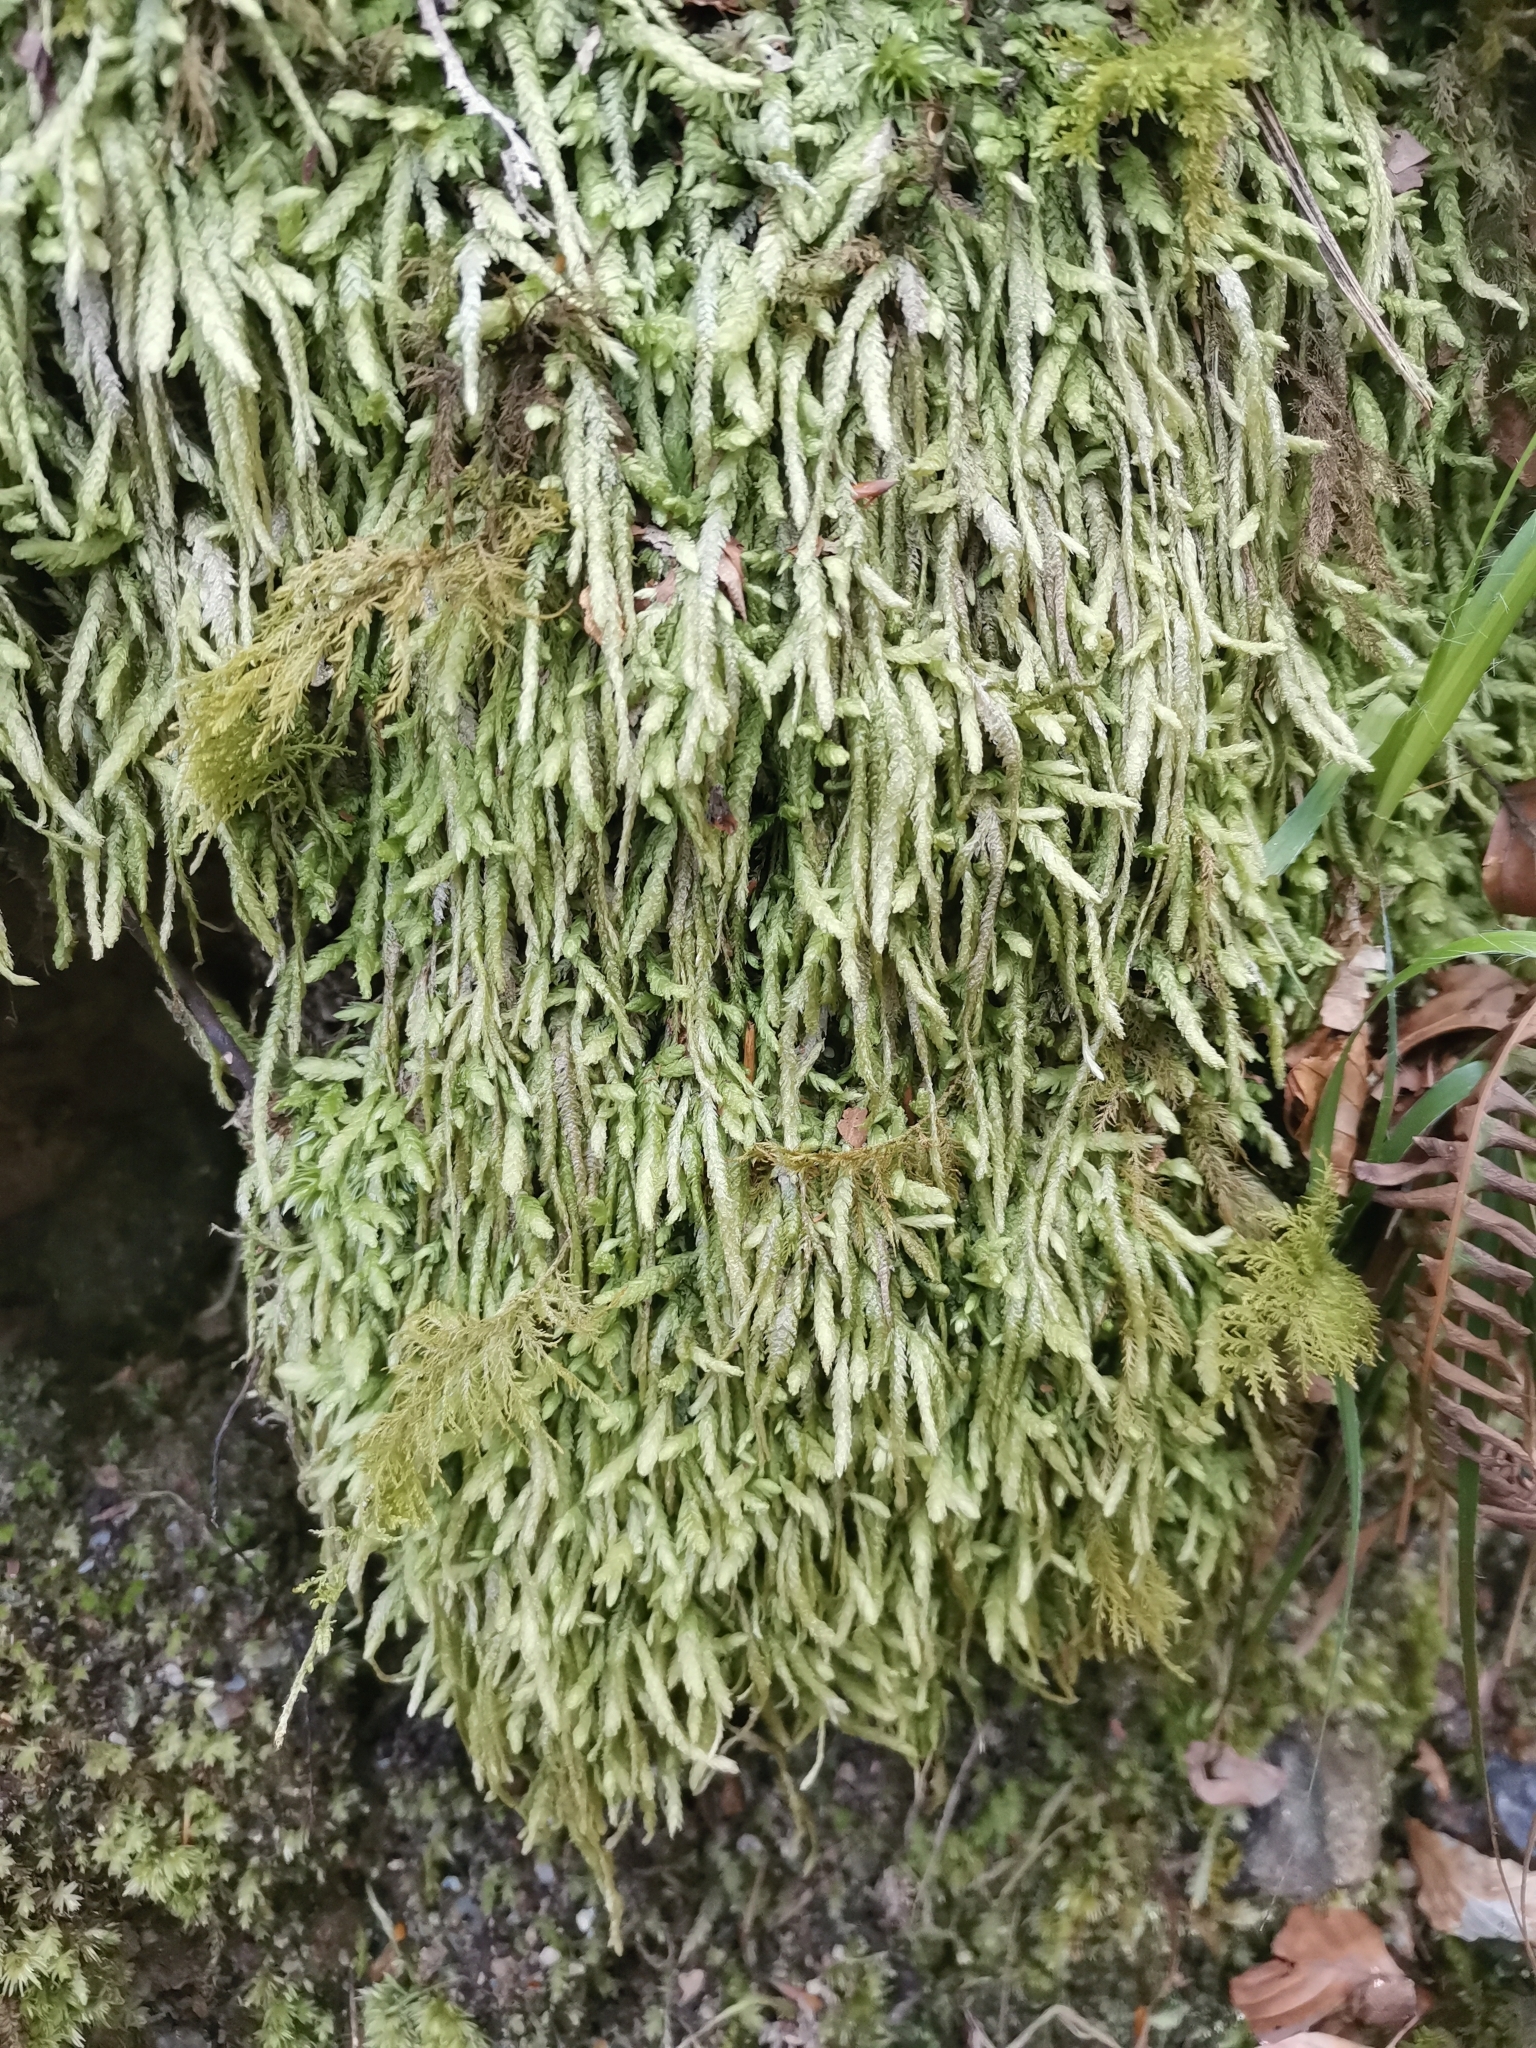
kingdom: Plantae
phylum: Bryophyta
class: Bryopsida
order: Hypnales
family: Plagiotheciaceae
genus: Plagiothecium
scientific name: Plagiothecium undulatum
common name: Waved silk-moss
